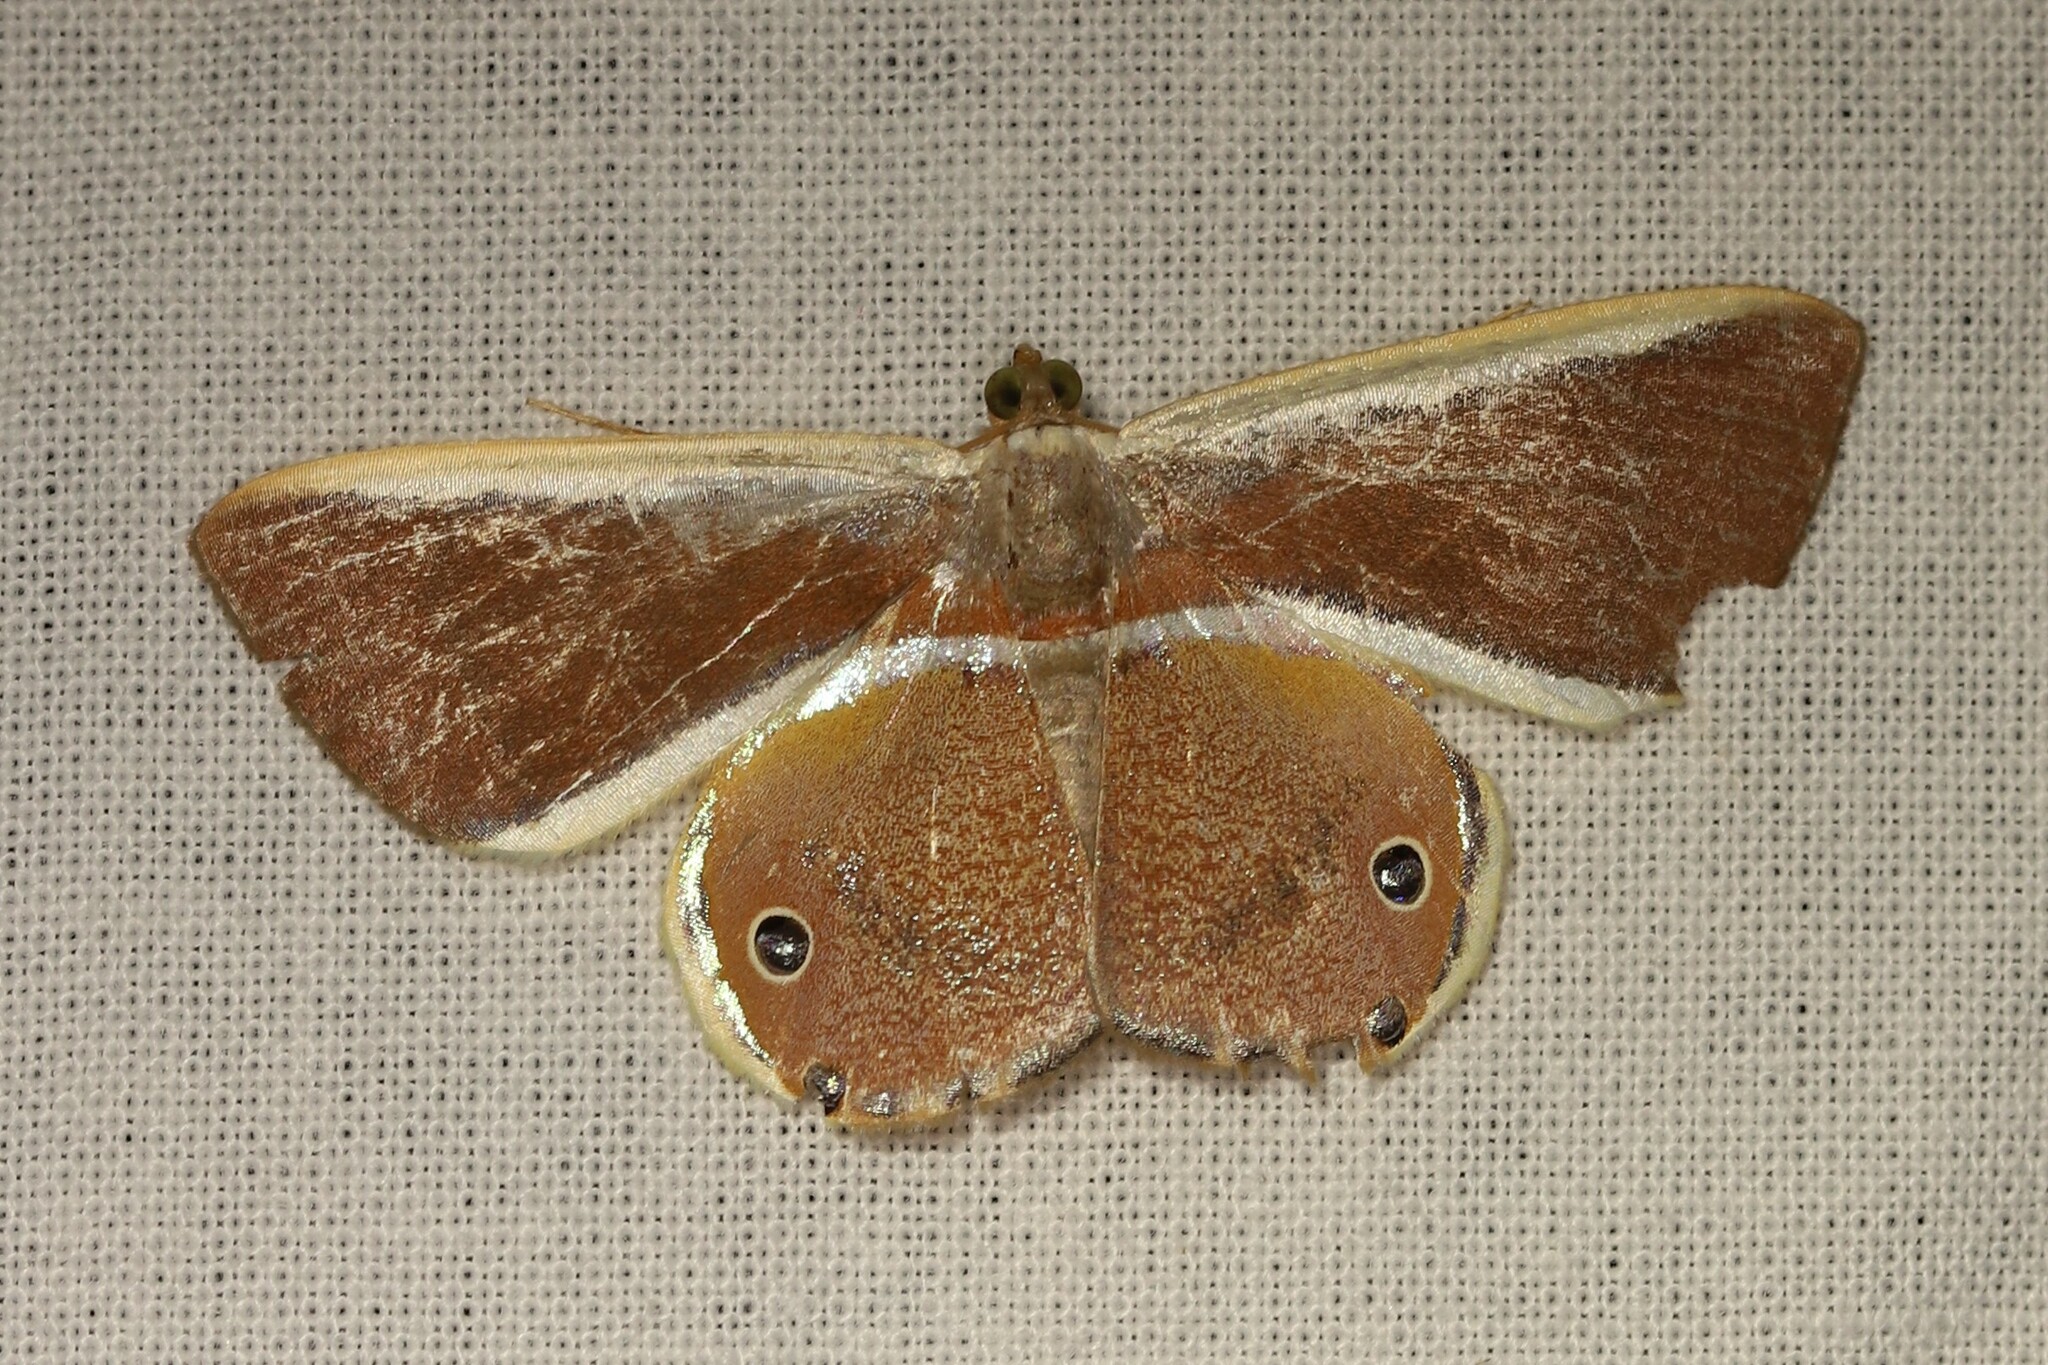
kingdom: Animalia
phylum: Arthropoda
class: Insecta
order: Lepidoptera
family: Geometridae
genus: Opisthoxia
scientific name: Opisthoxia eusiraria
